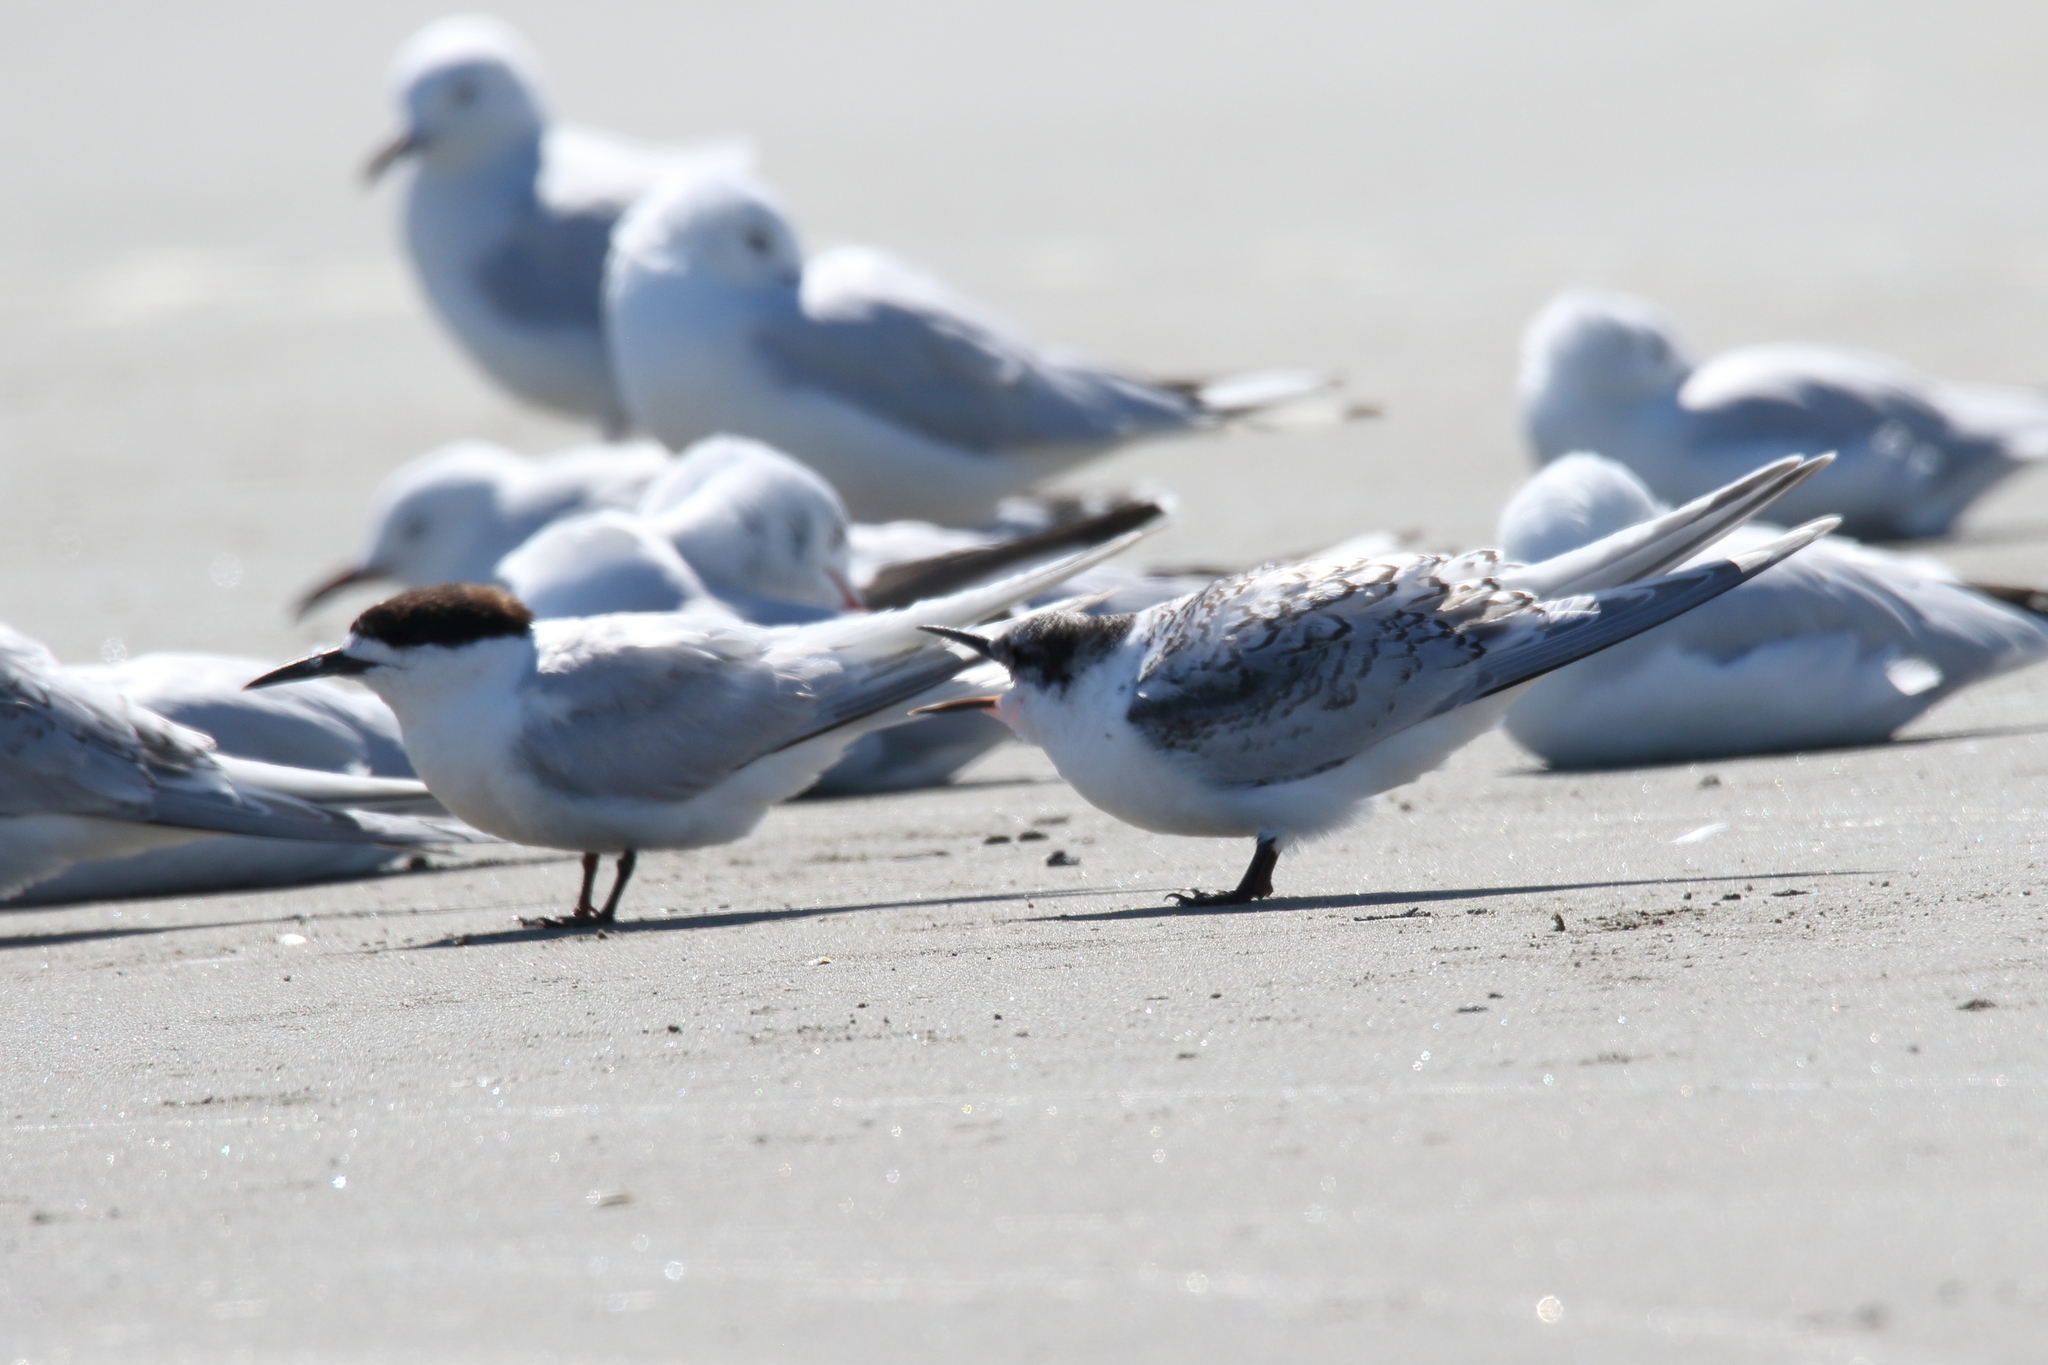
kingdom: Animalia
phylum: Chordata
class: Aves
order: Charadriiformes
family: Laridae
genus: Sterna
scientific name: Sterna striata
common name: White-fronted tern
